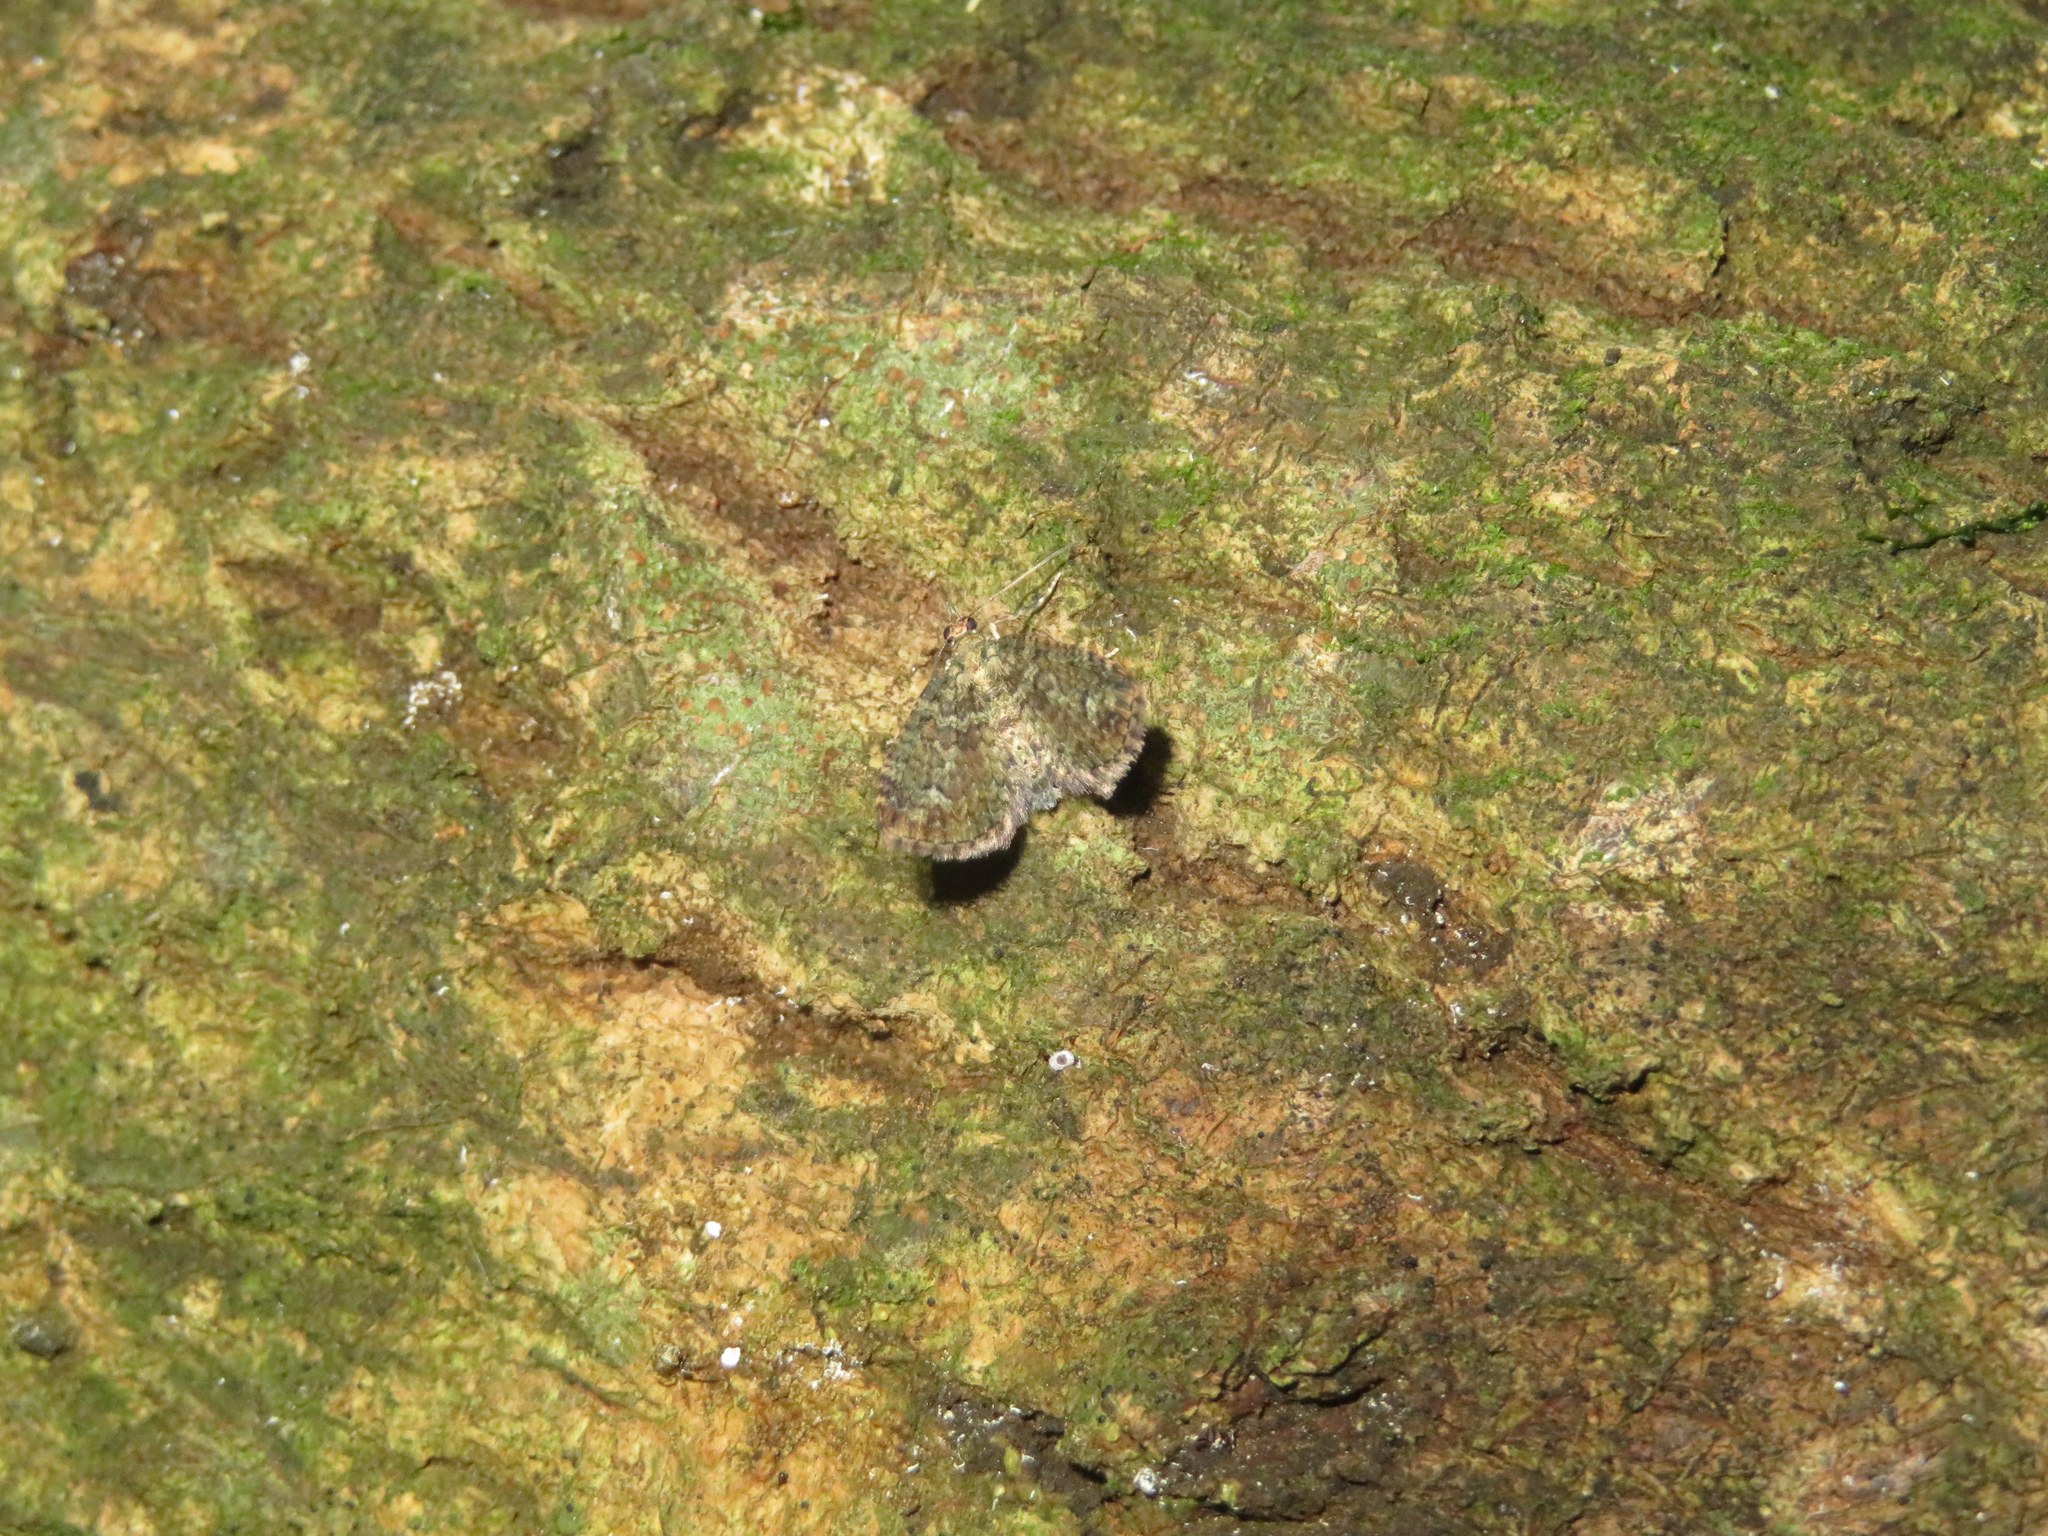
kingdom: Animalia
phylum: Arthropoda
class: Insecta
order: Lepidoptera
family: Geometridae
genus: Idaea
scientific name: Idaea mutanda
